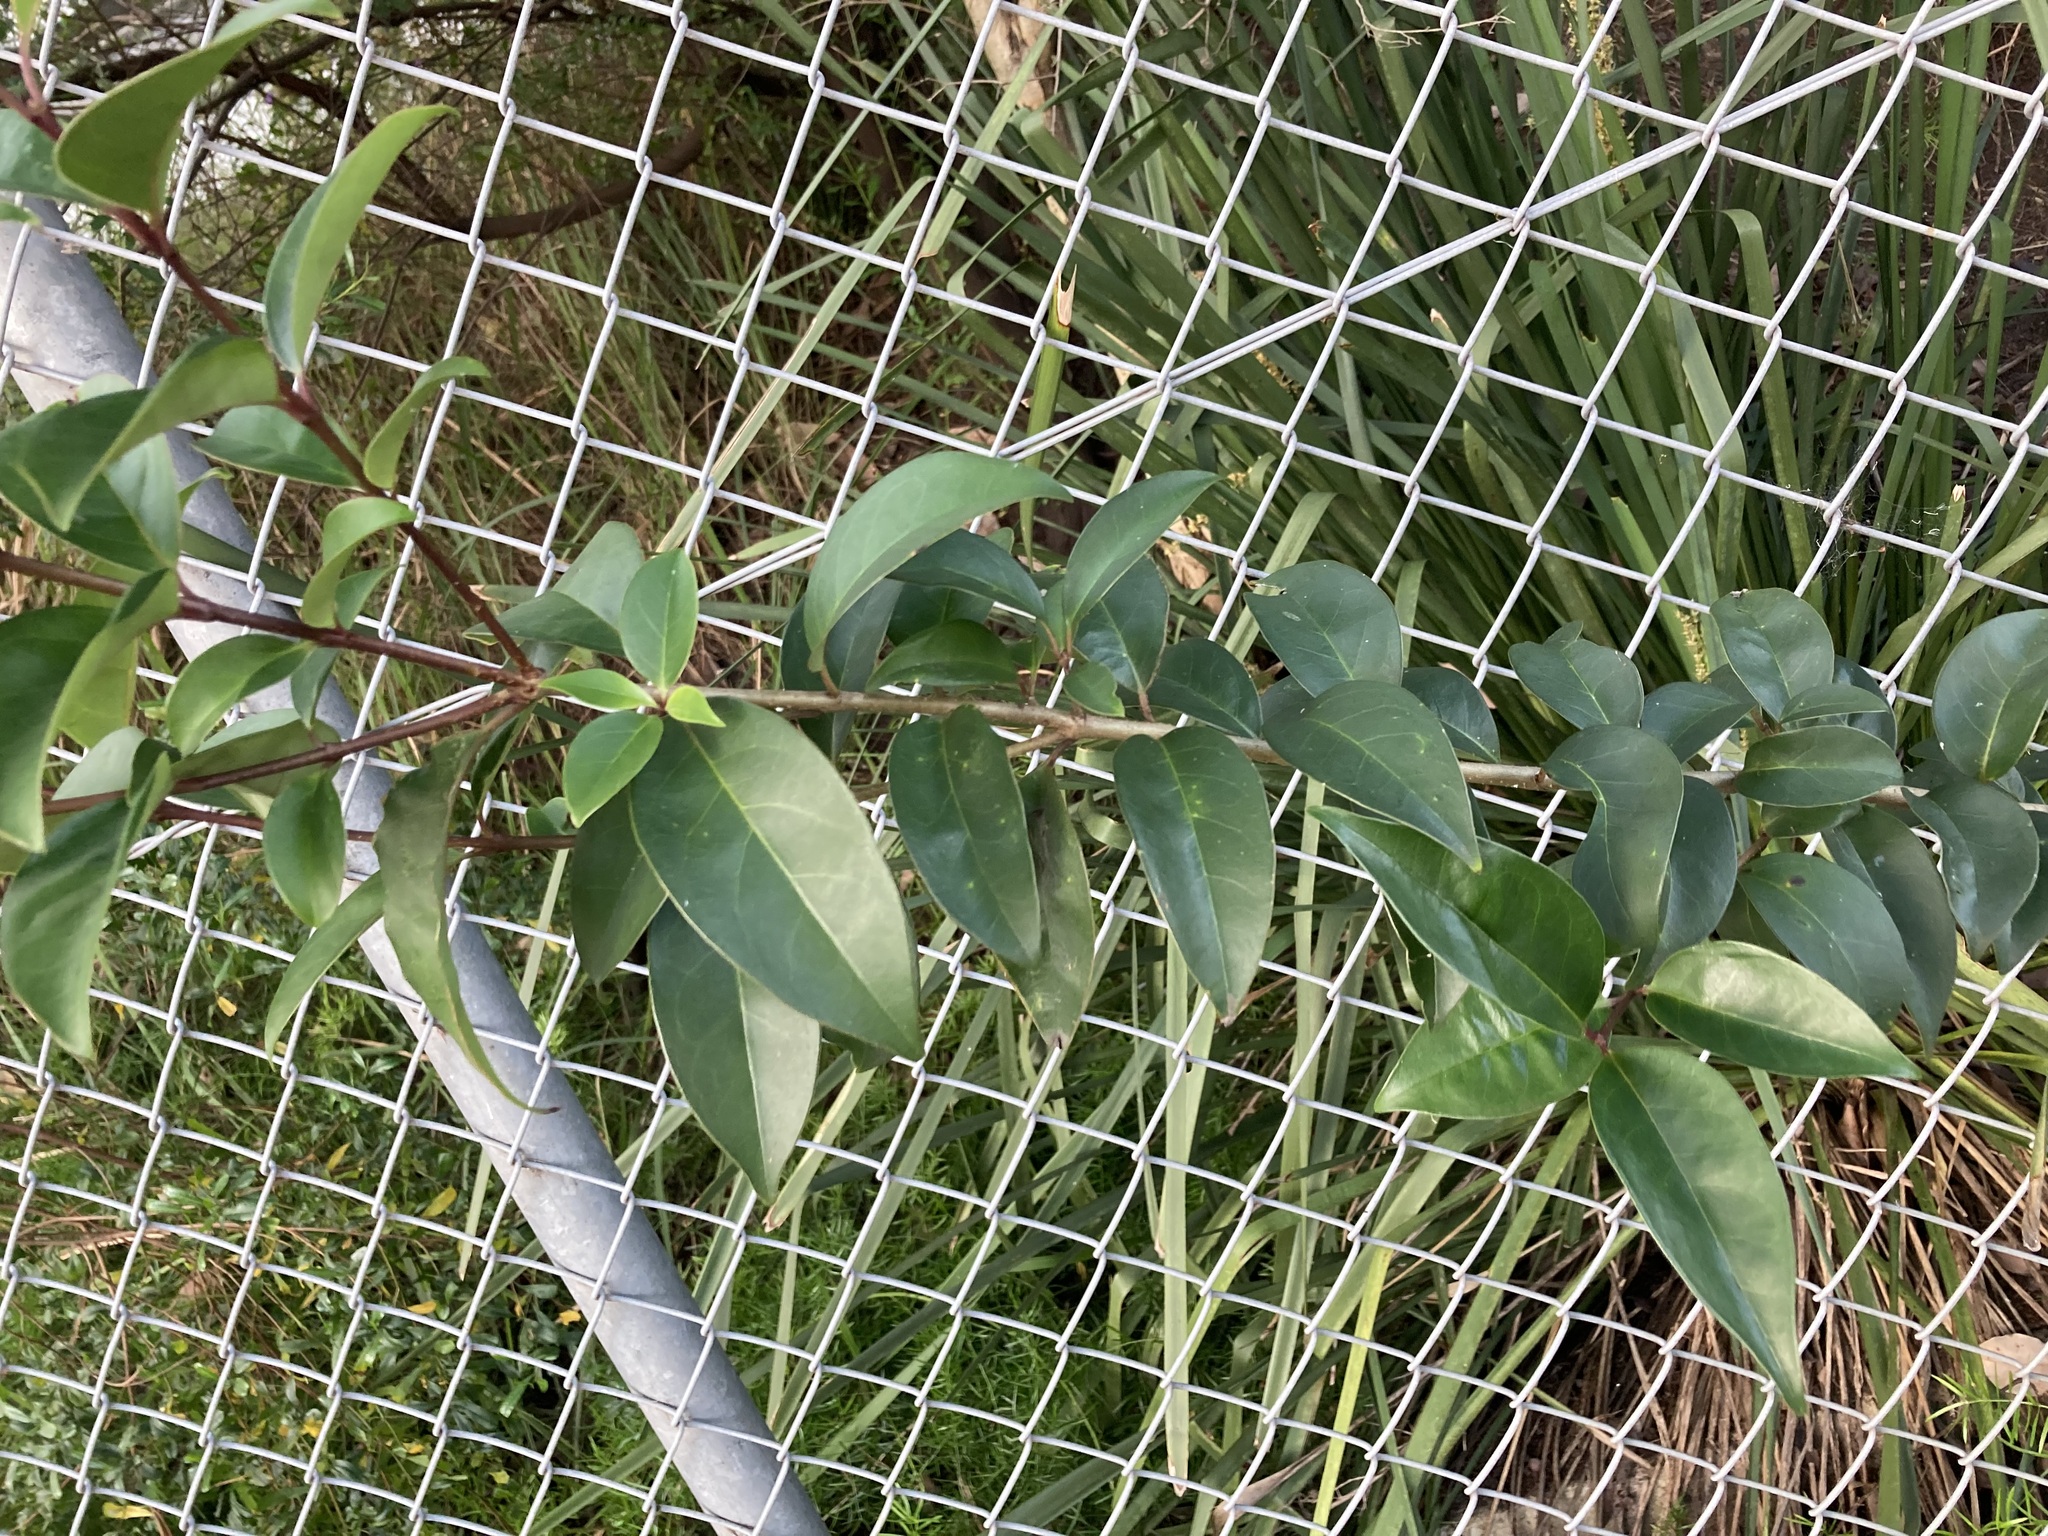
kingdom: Plantae
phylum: Tracheophyta
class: Magnoliopsida
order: Lamiales
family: Oleaceae
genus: Ligustrum
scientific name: Ligustrum lucidum
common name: Glossy privet
